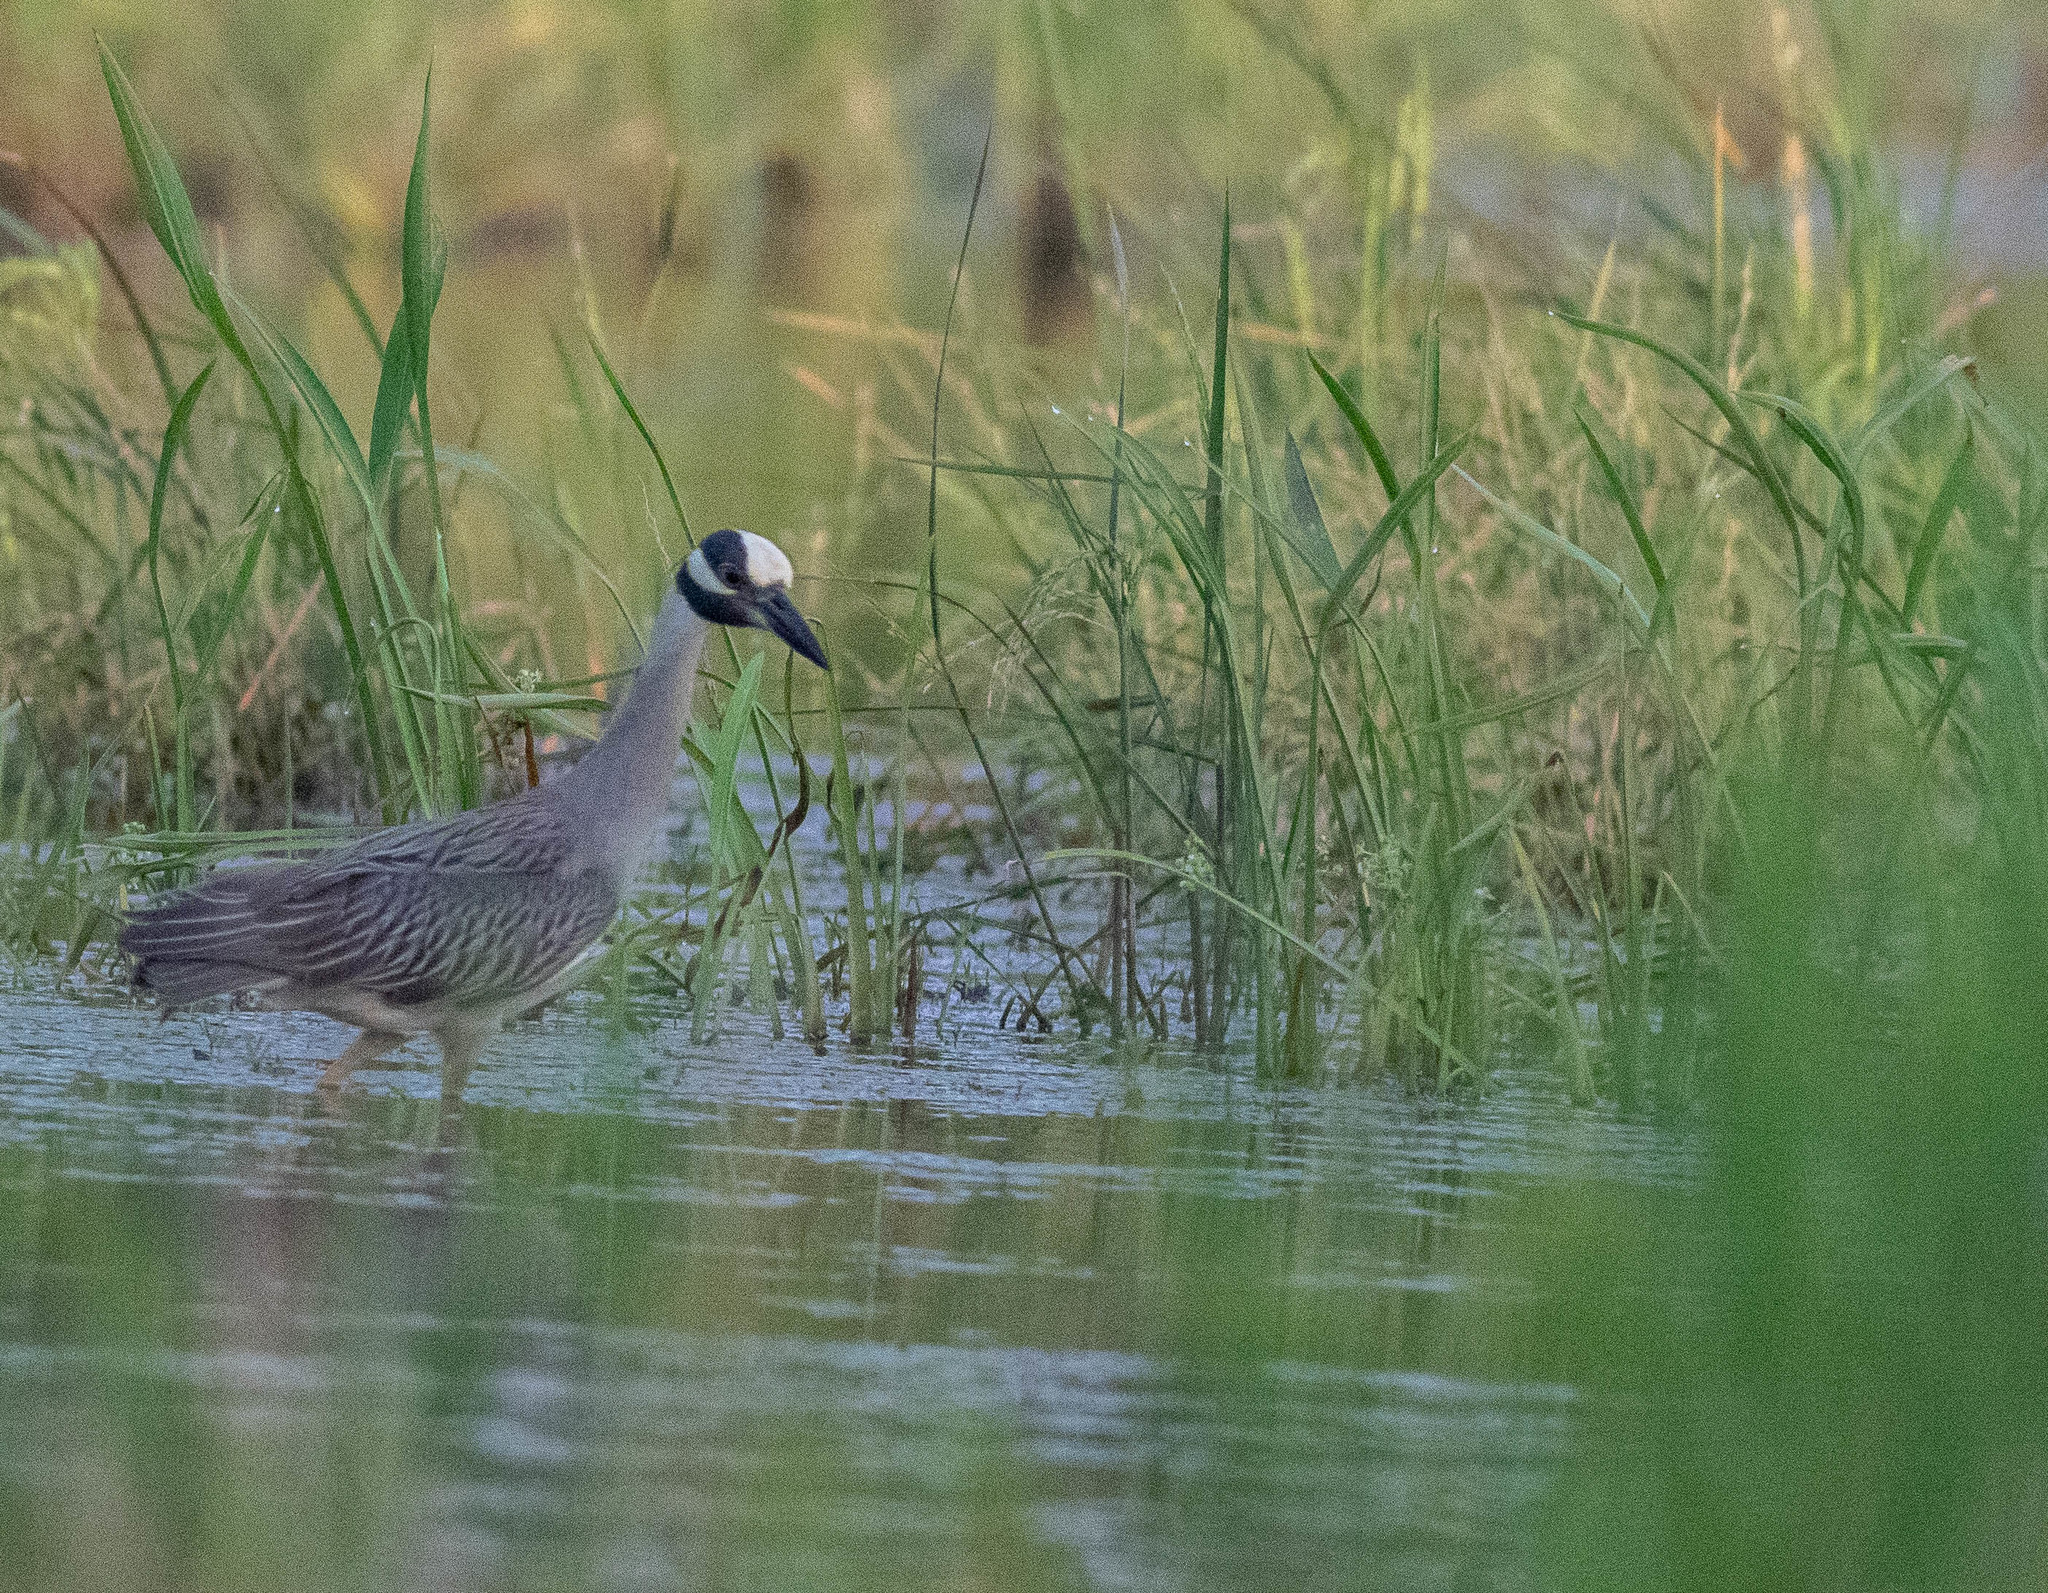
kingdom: Animalia
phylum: Chordata
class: Aves
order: Pelecaniformes
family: Ardeidae
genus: Nyctanassa
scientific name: Nyctanassa violacea
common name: Yellow-crowned night heron
